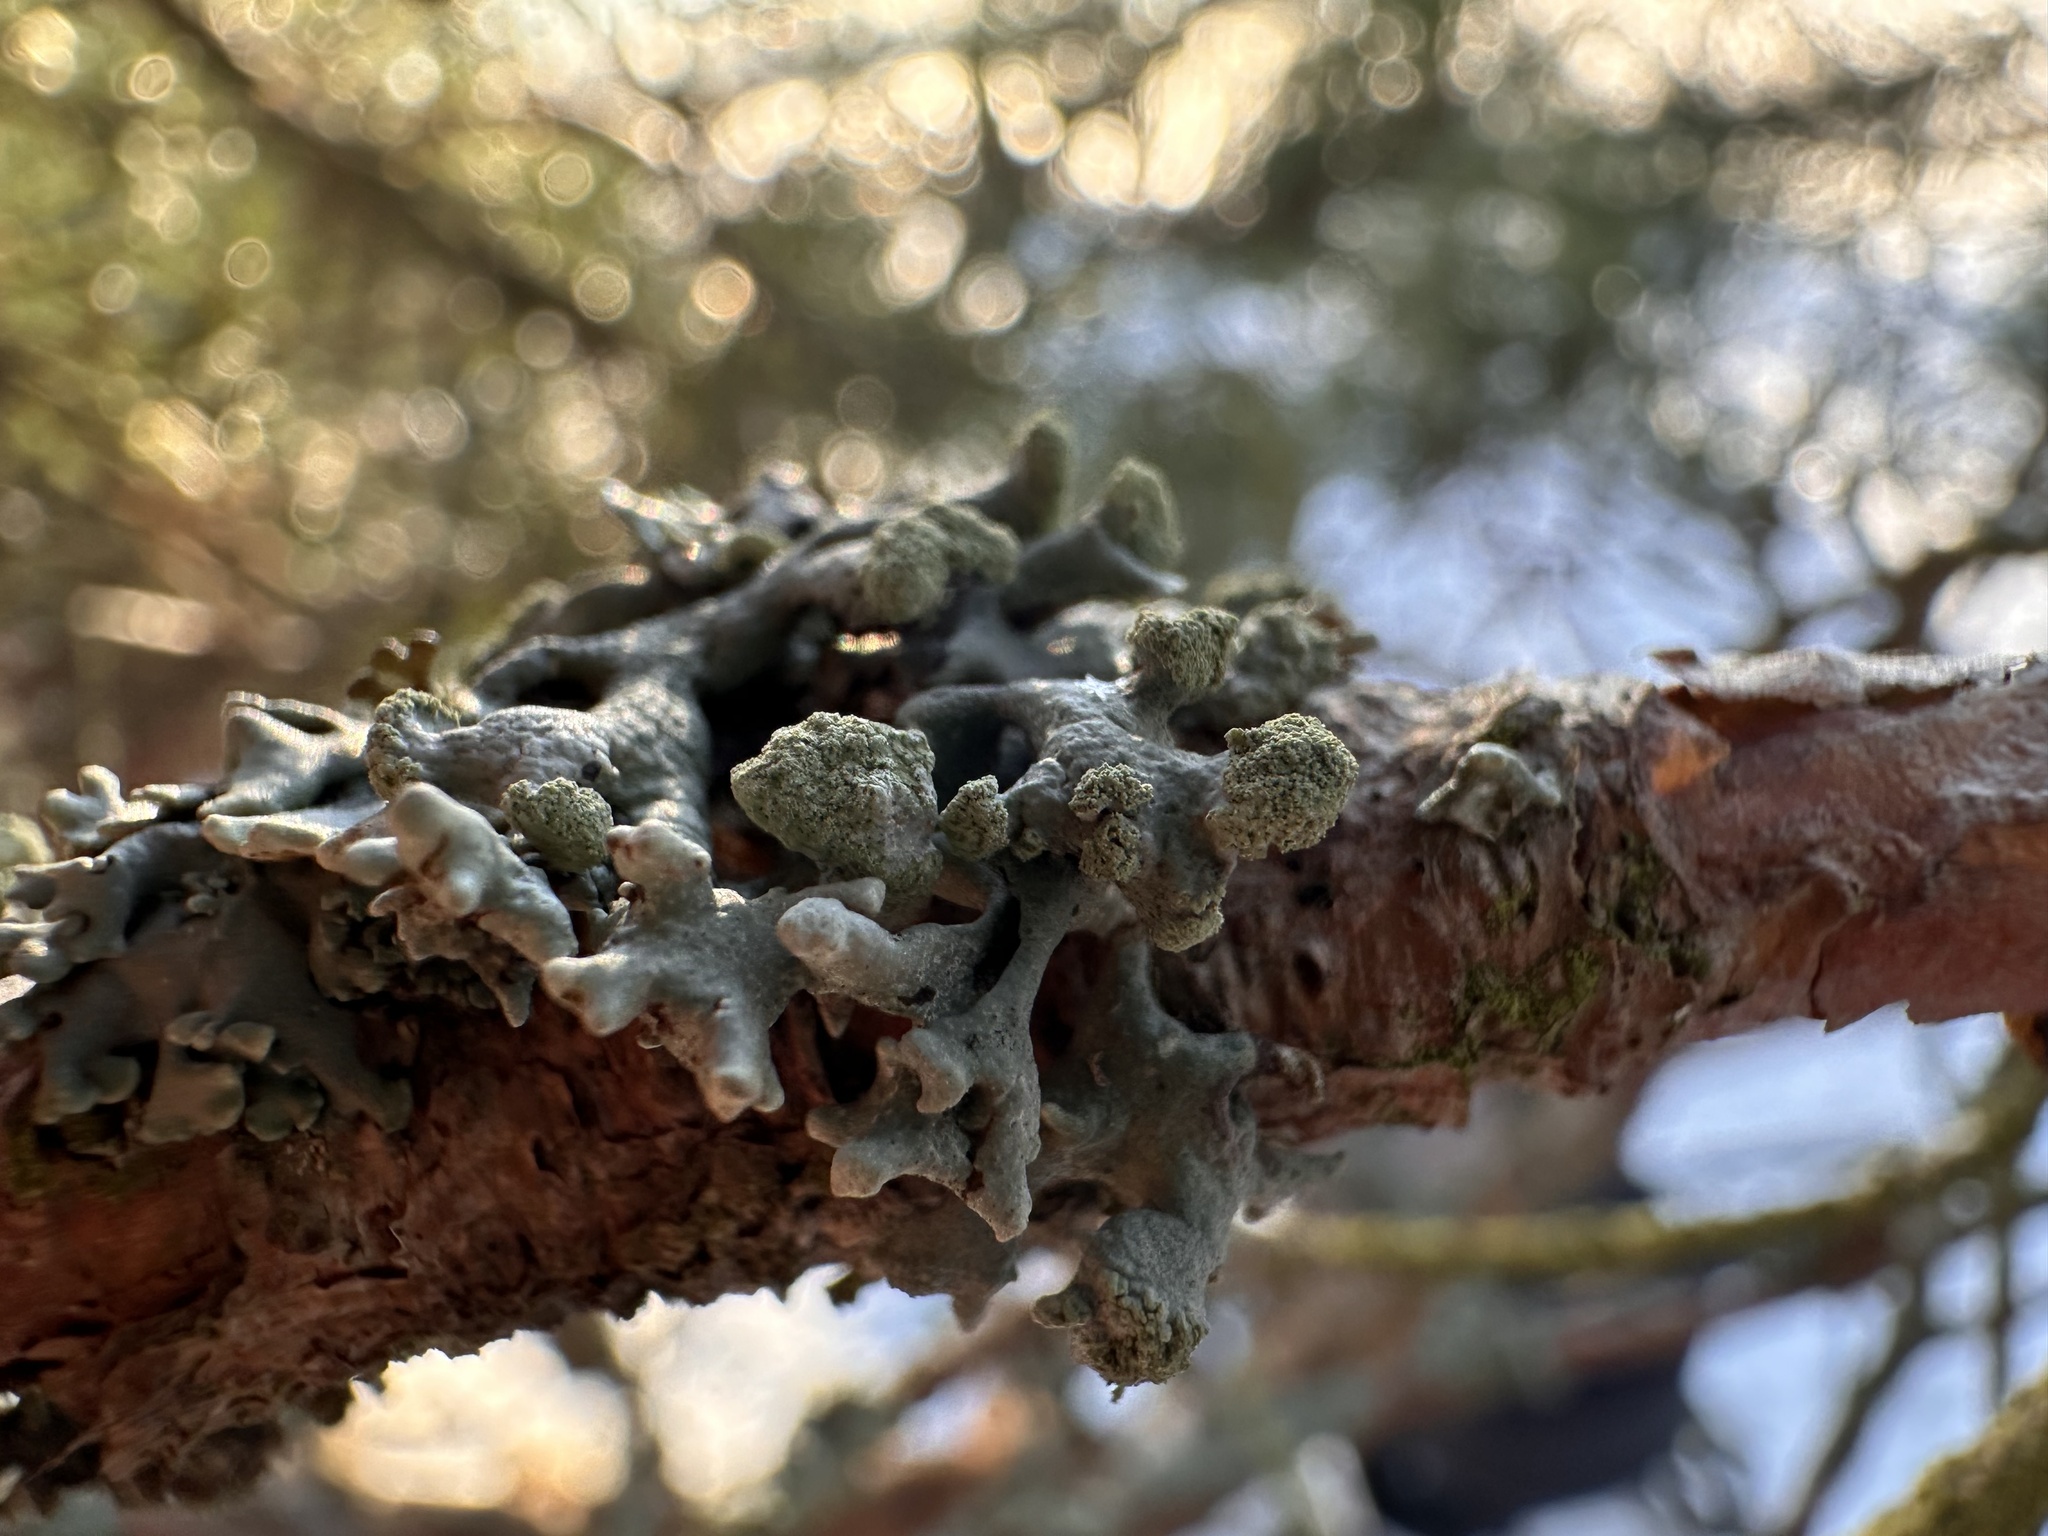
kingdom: Fungi
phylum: Ascomycota
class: Lecanoromycetes
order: Lecanorales
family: Parmeliaceae
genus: Hypogymnia
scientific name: Hypogymnia tubulosa
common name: Powder-headed tube lichen
